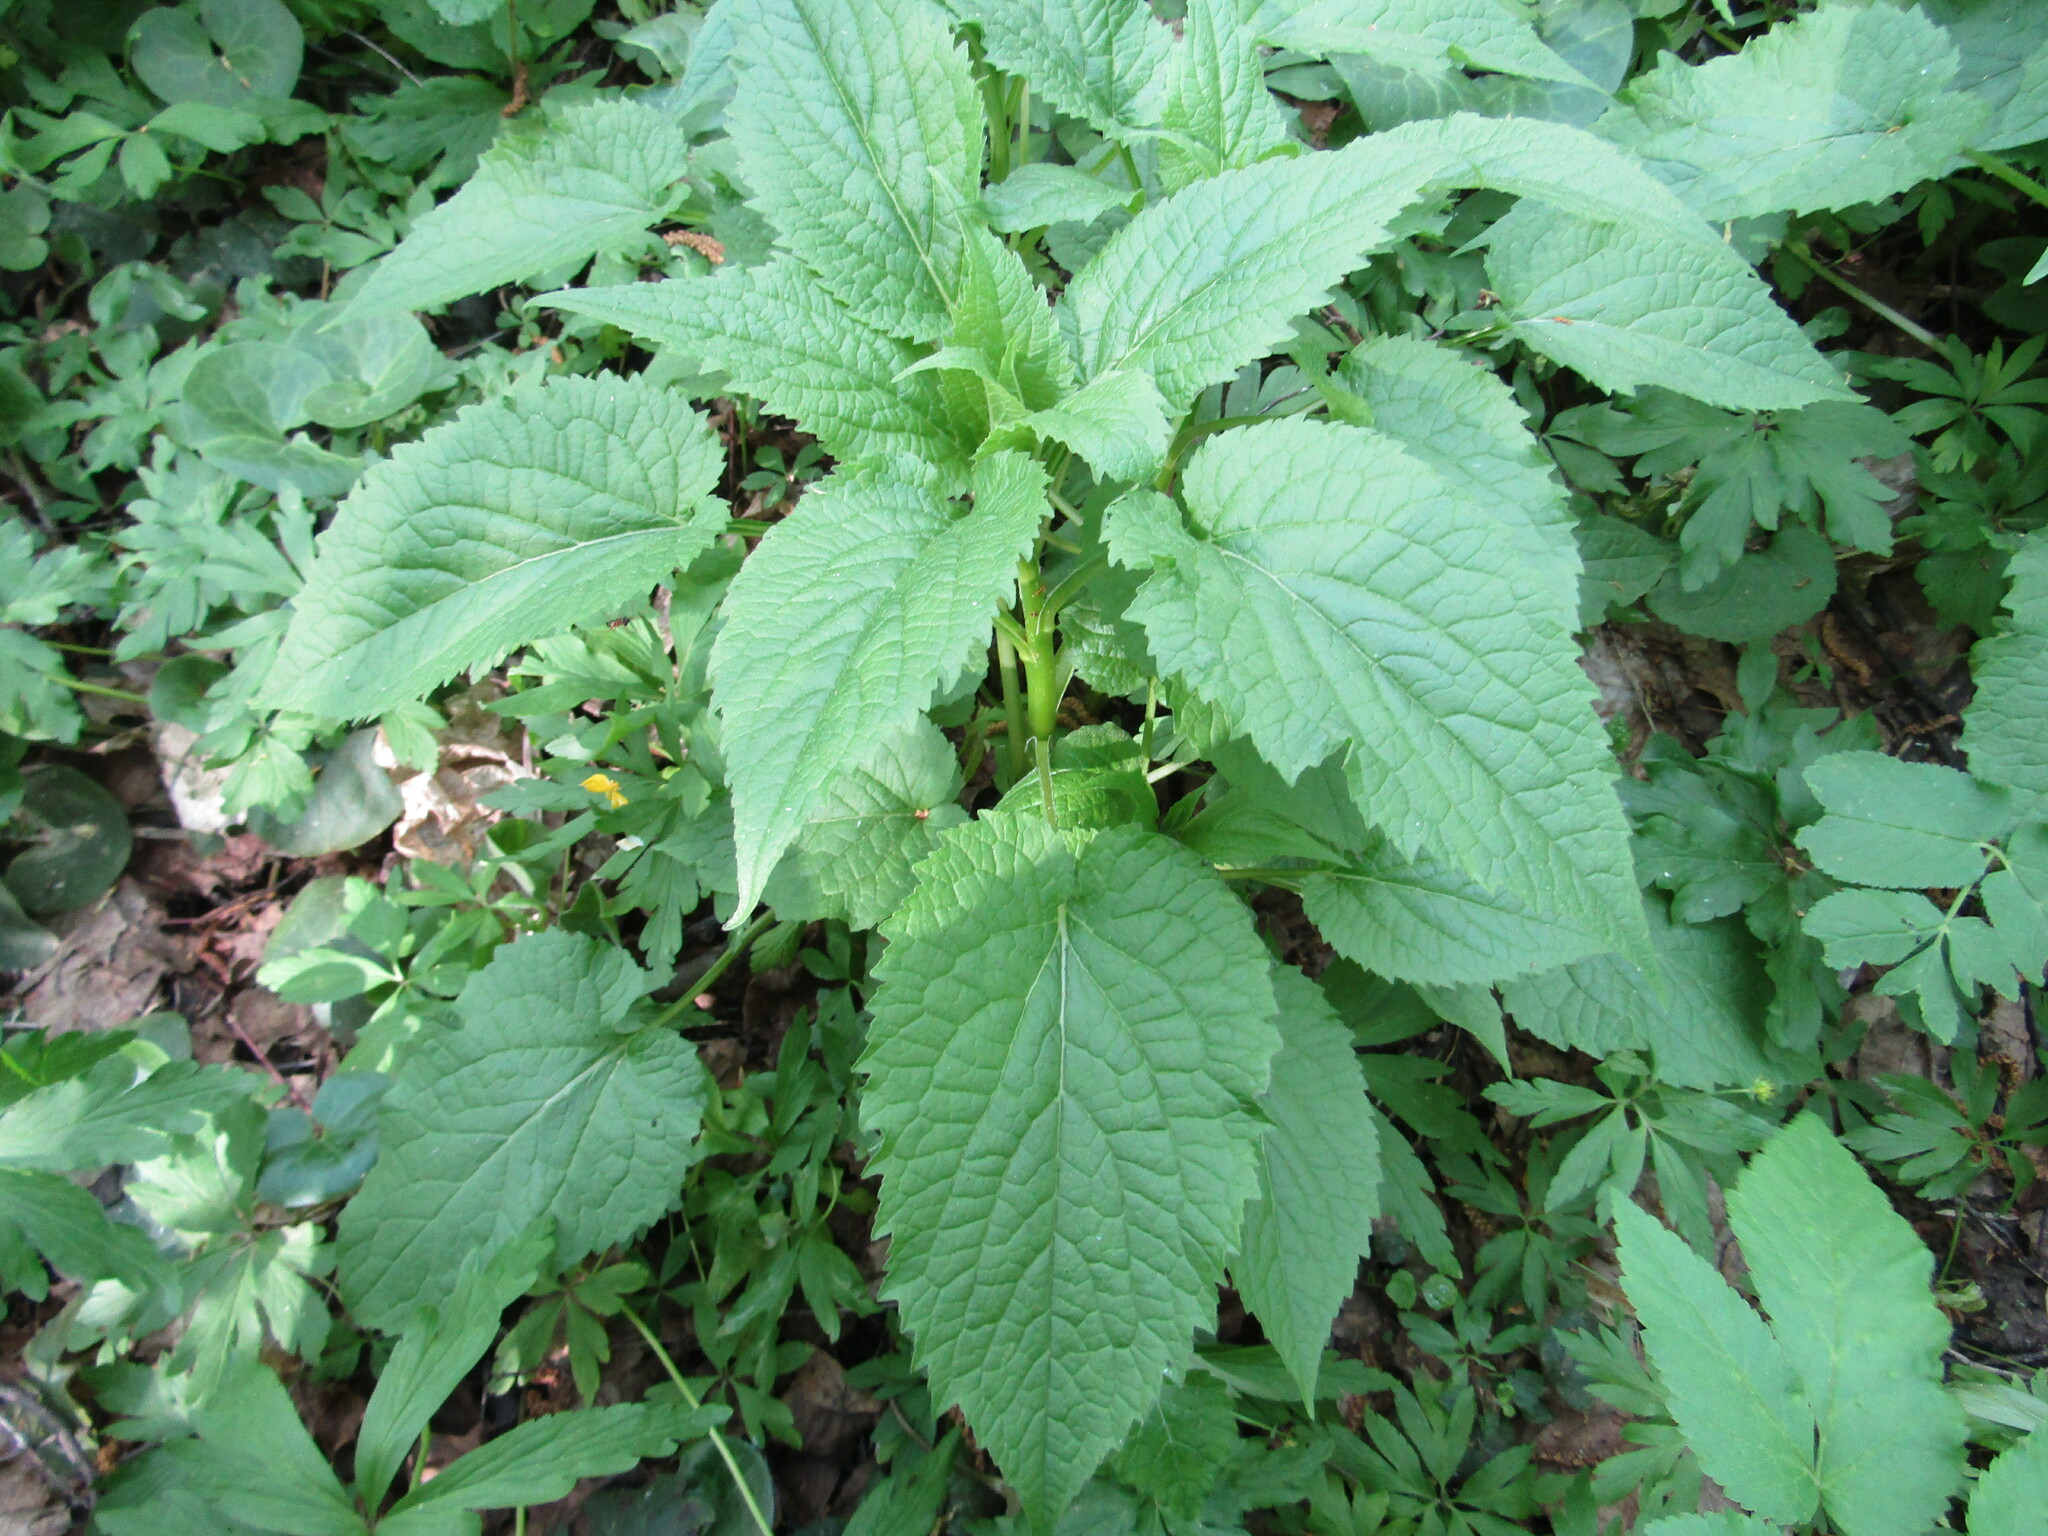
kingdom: Plantae
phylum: Tracheophyta
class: Magnoliopsida
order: Asterales
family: Campanulaceae
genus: Campanula
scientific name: Campanula latifolia
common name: Giant bellflower
